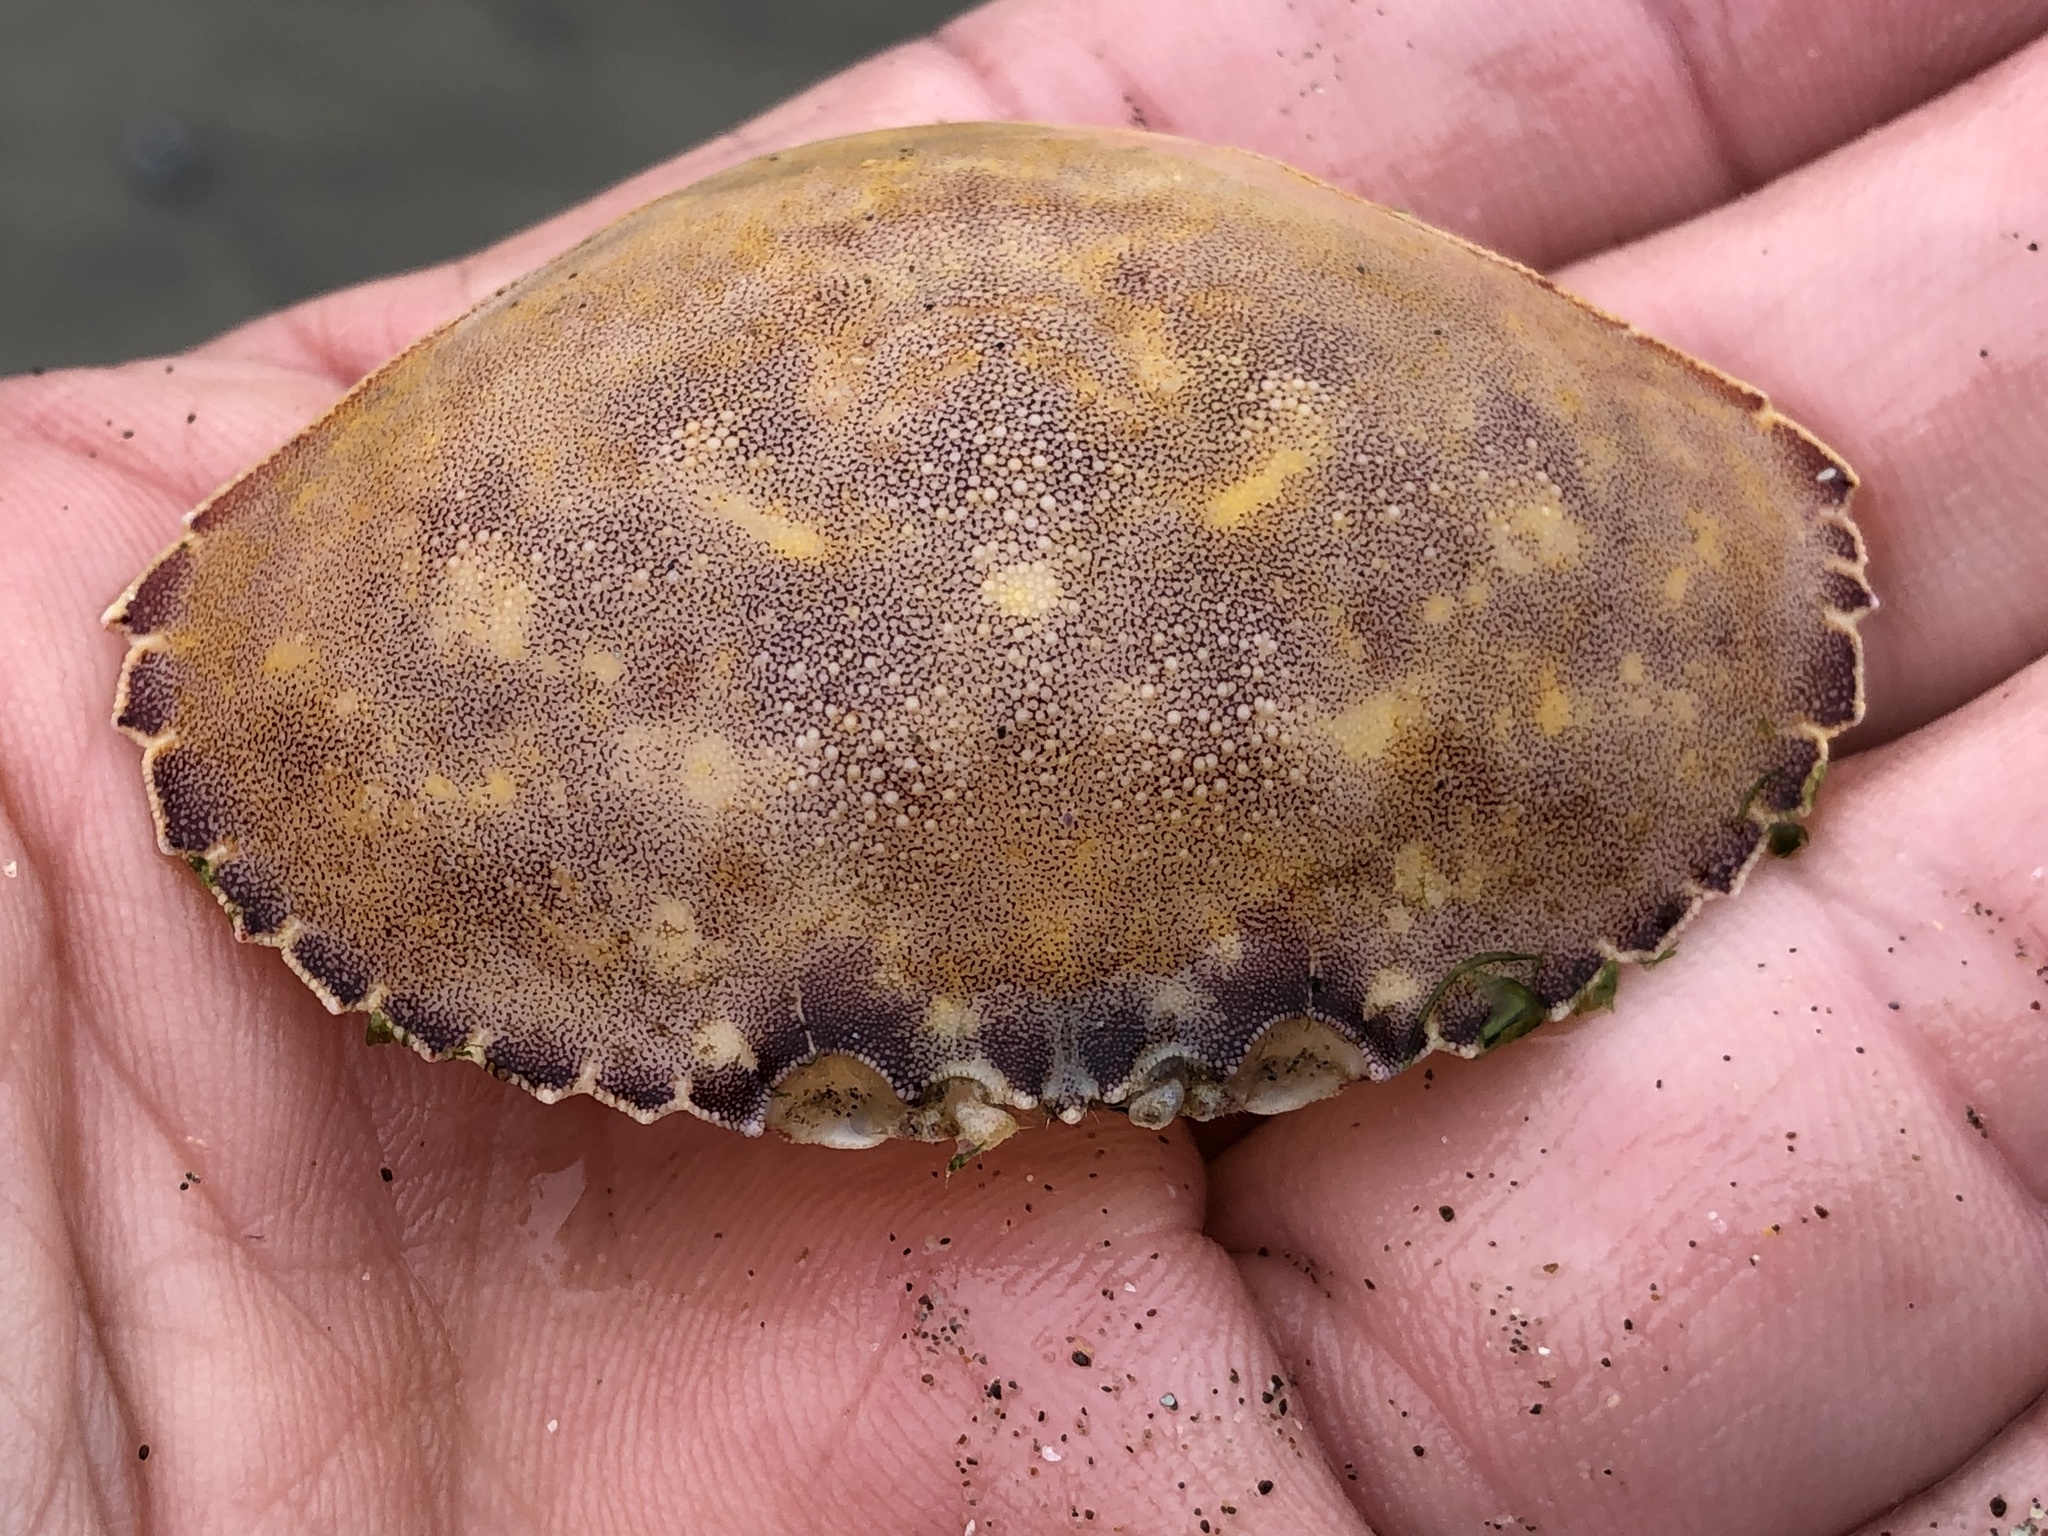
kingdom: Animalia
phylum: Arthropoda
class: Malacostraca
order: Decapoda
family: Cancridae
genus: Metacarcinus
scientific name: Metacarcinus gracilis
